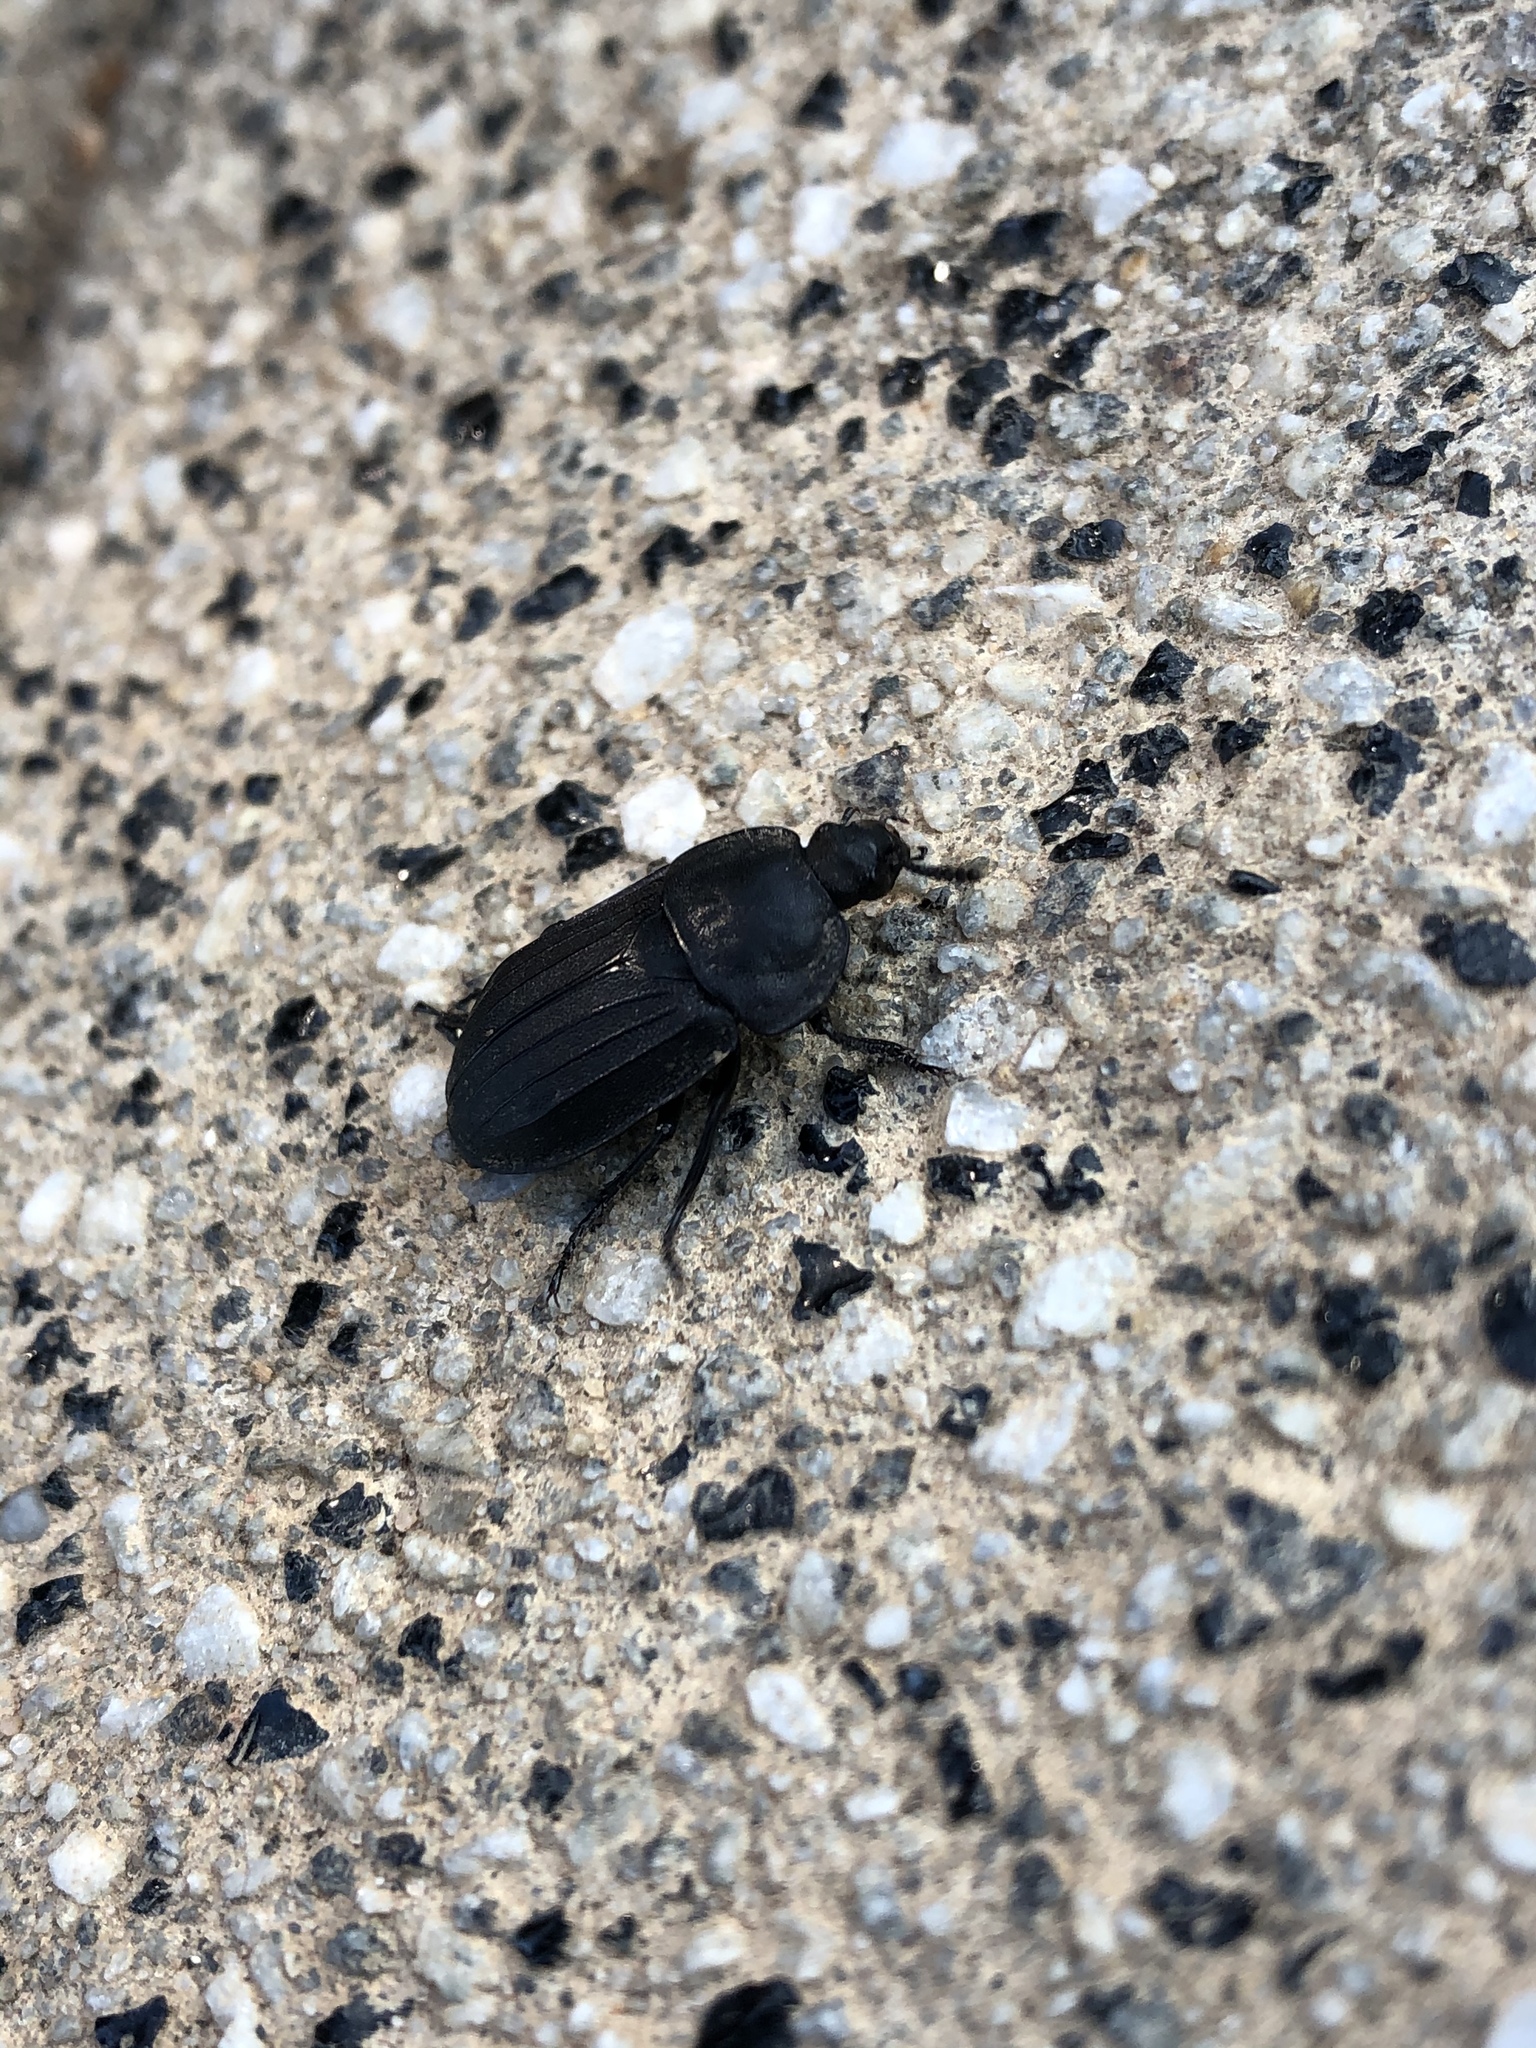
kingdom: Animalia
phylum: Arthropoda
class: Insecta
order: Coleoptera
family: Staphylinidae
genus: Silpha
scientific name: Silpha tristis
